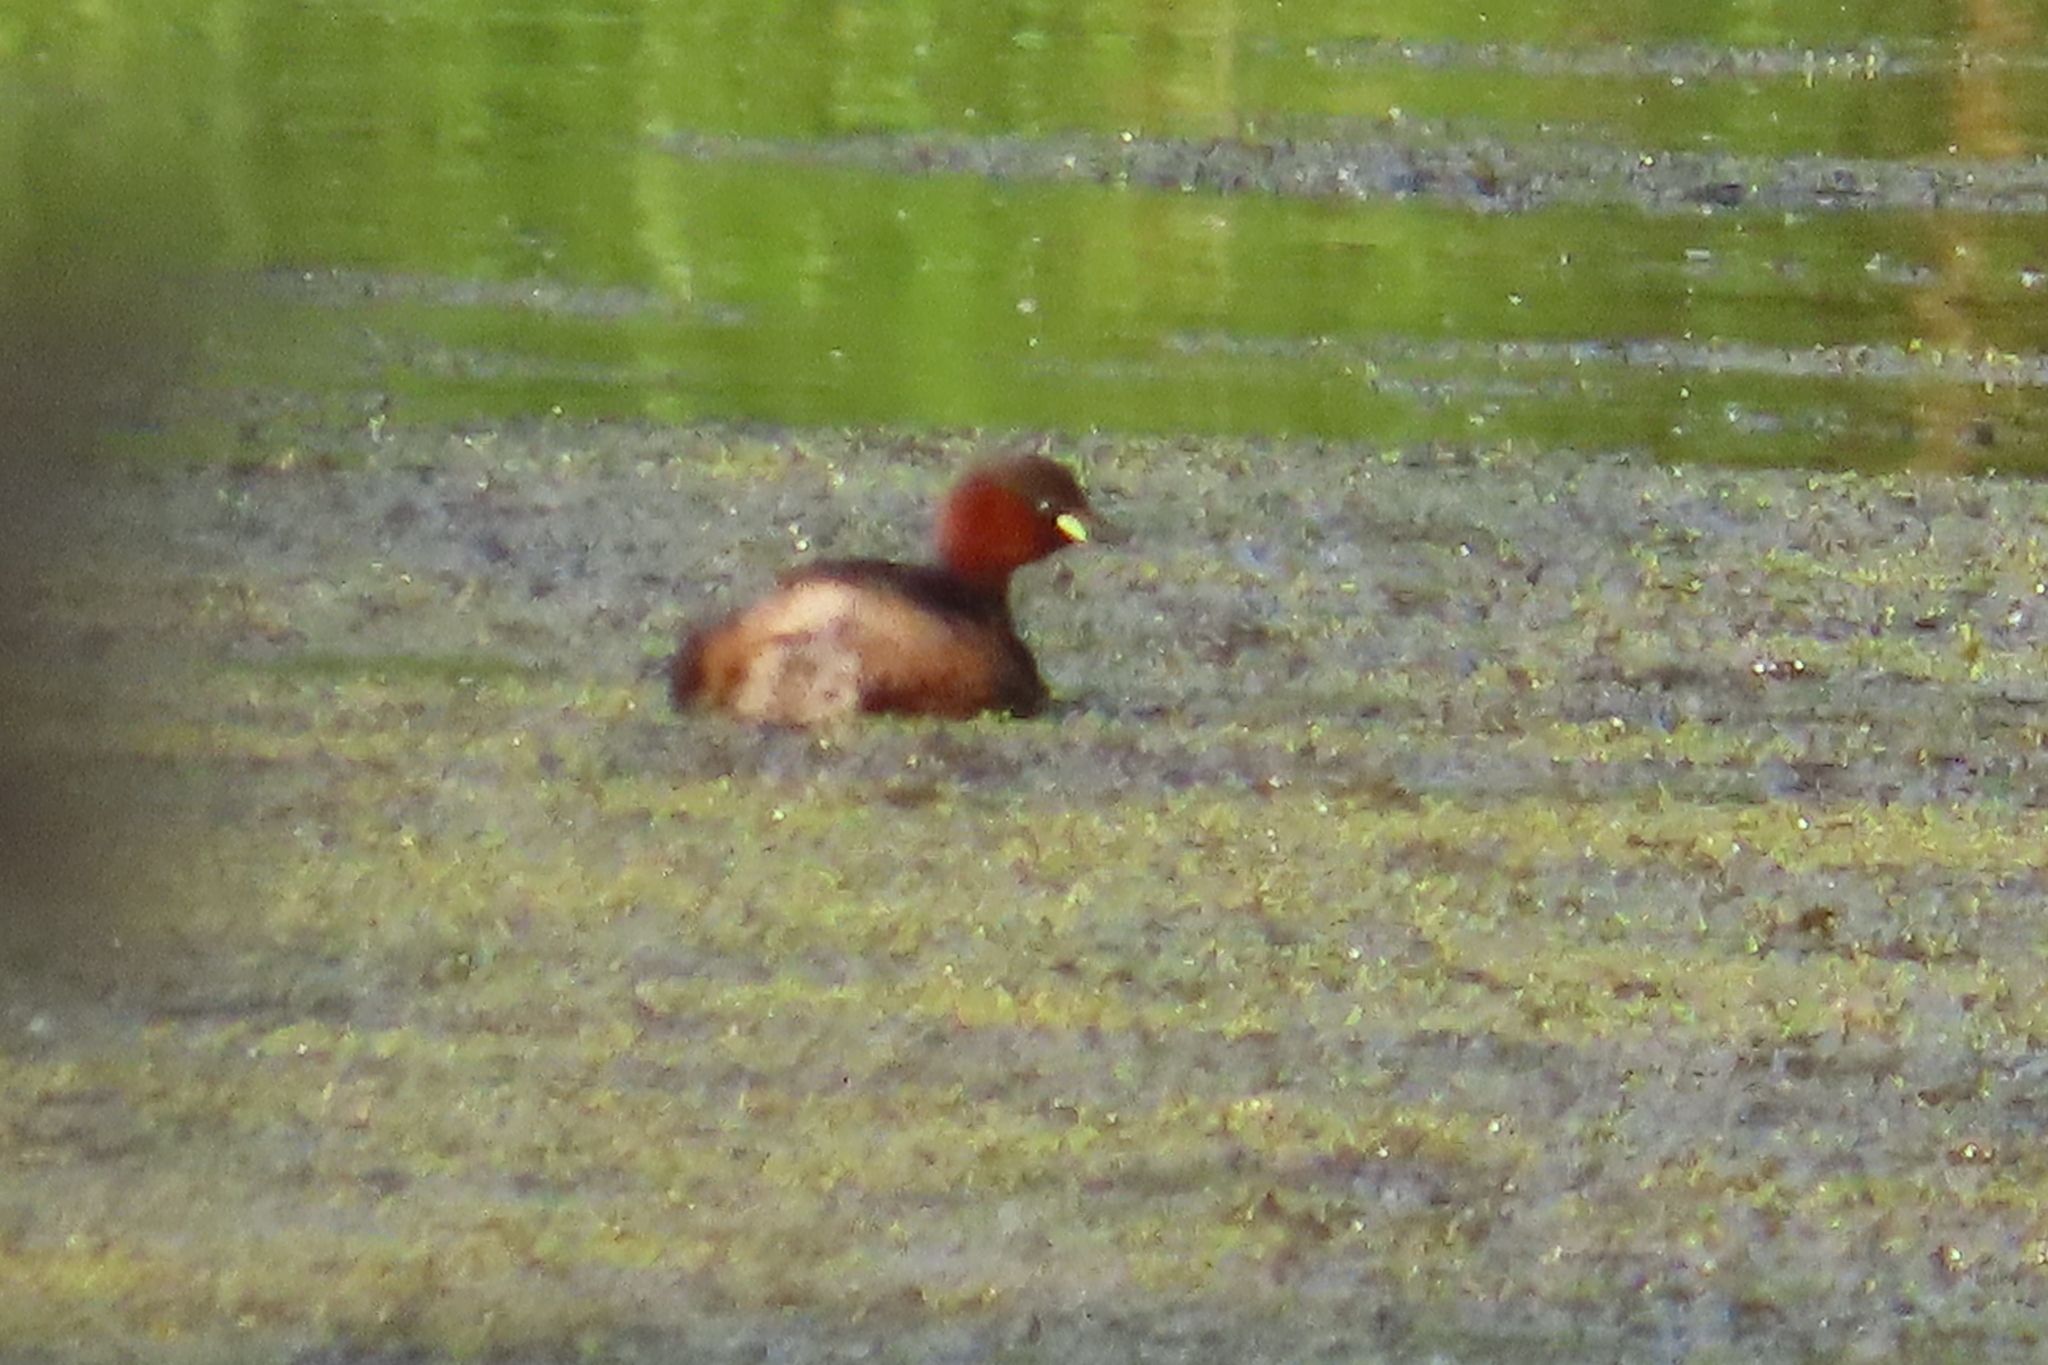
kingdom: Animalia
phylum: Chordata
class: Aves
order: Podicipediformes
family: Podicipedidae
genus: Tachybaptus
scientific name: Tachybaptus ruficollis
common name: Little grebe
